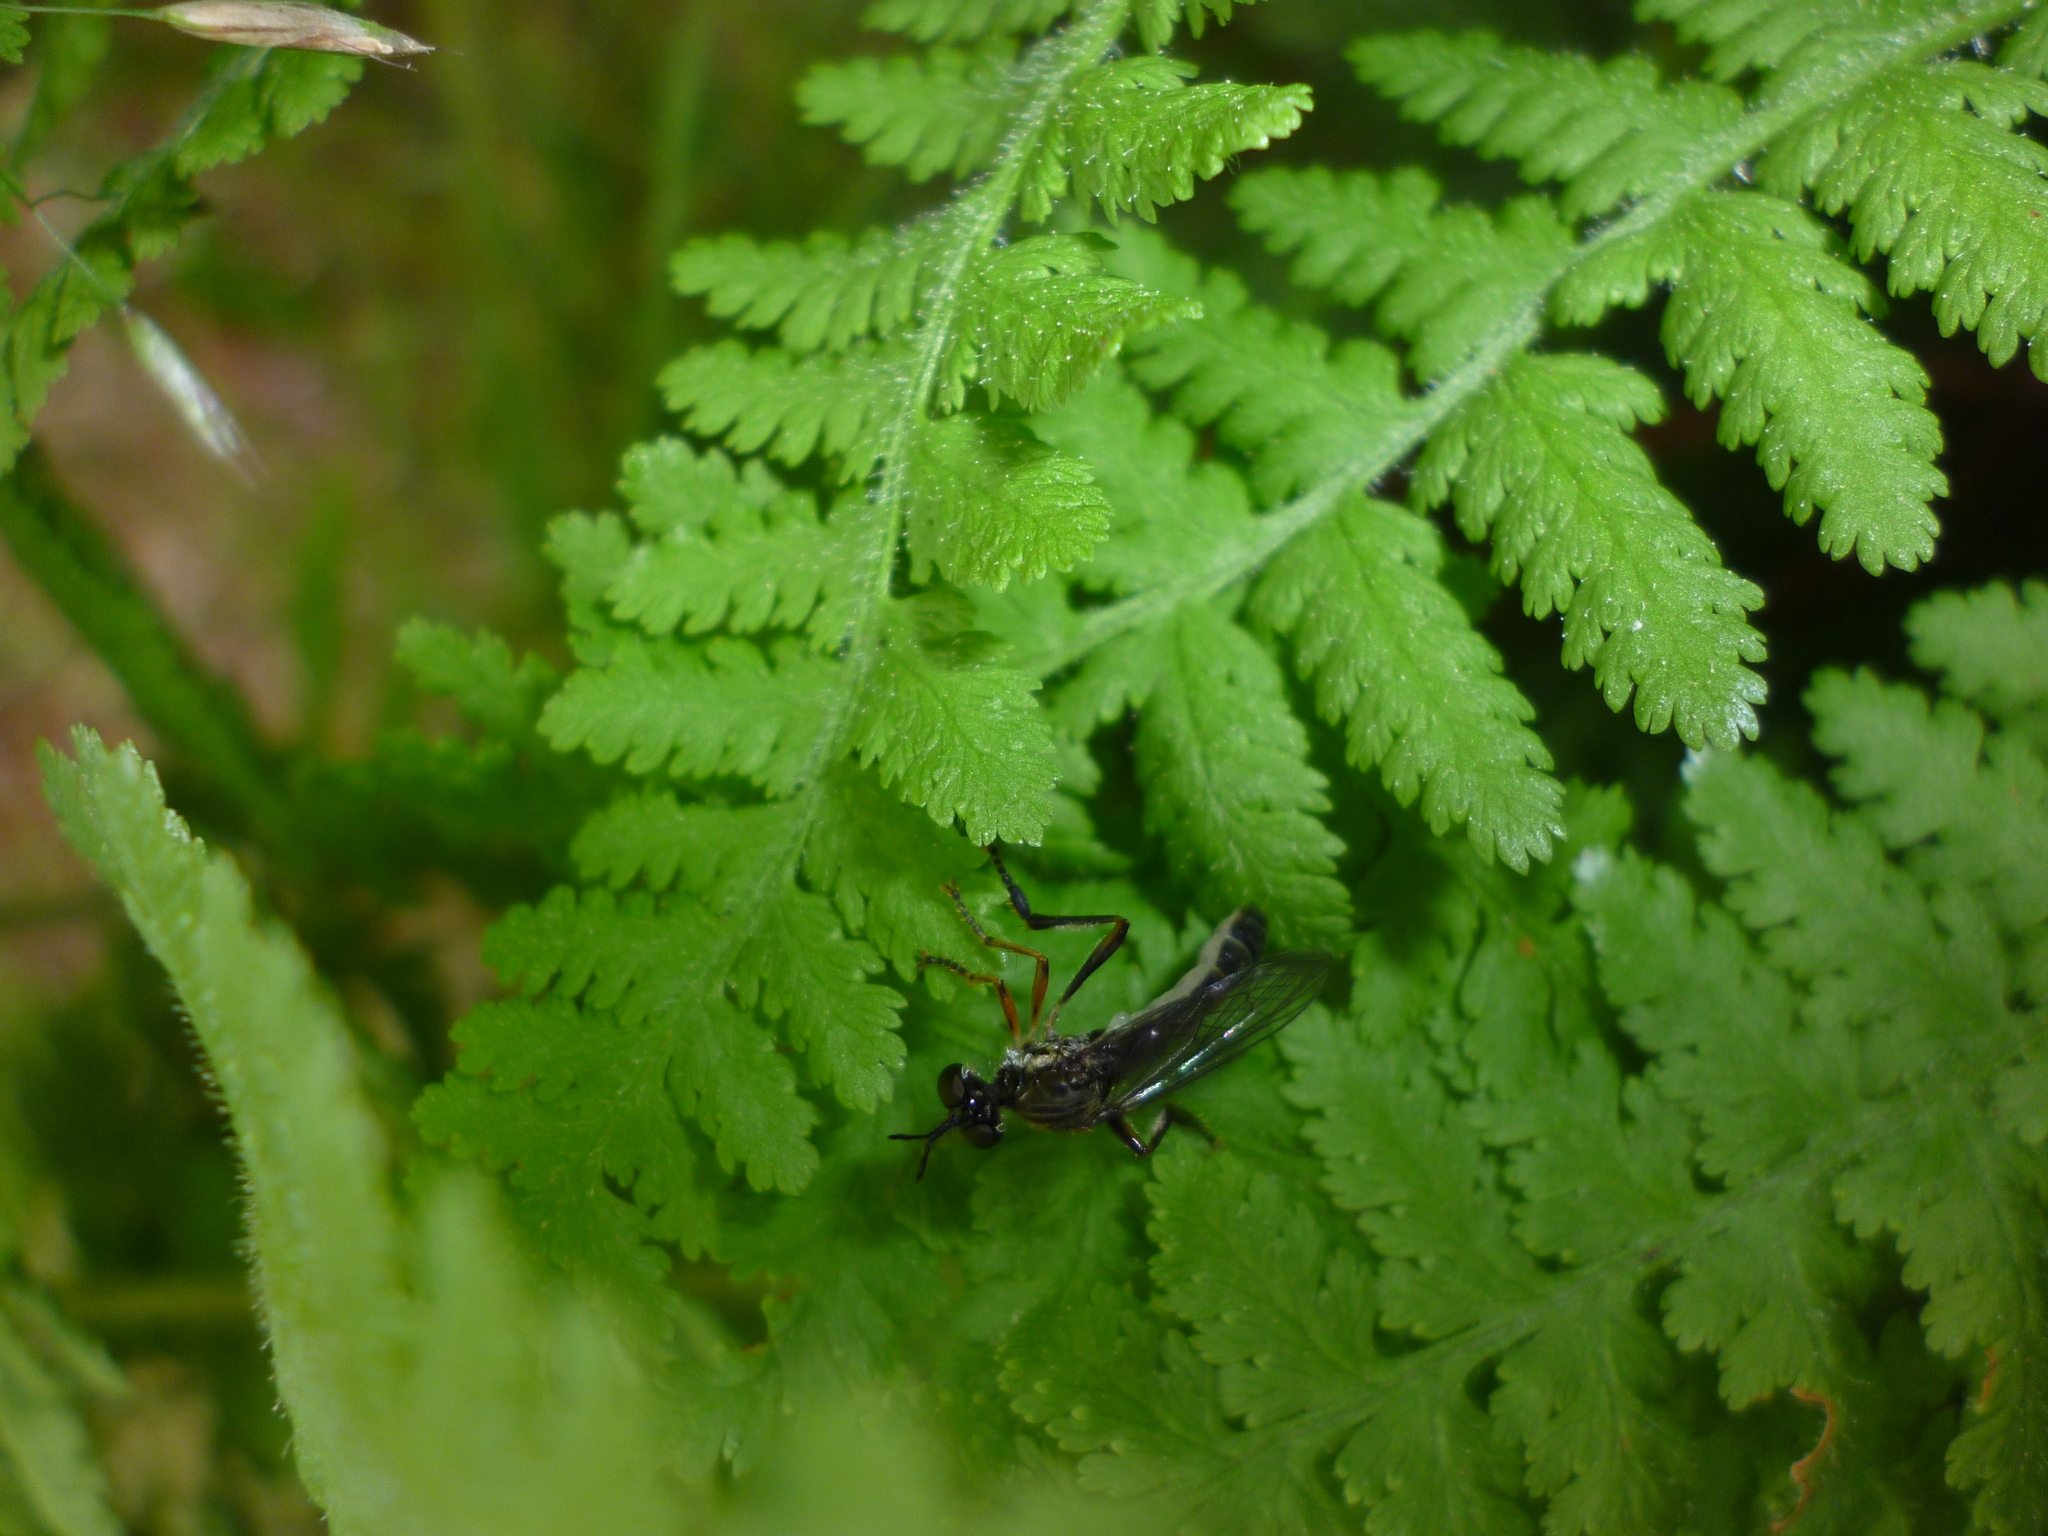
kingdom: Plantae
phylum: Tracheophyta
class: Polypodiopsida
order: Polypodiales
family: Dennstaedtiaceae
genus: Sitobolium
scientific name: Sitobolium punctilobum
